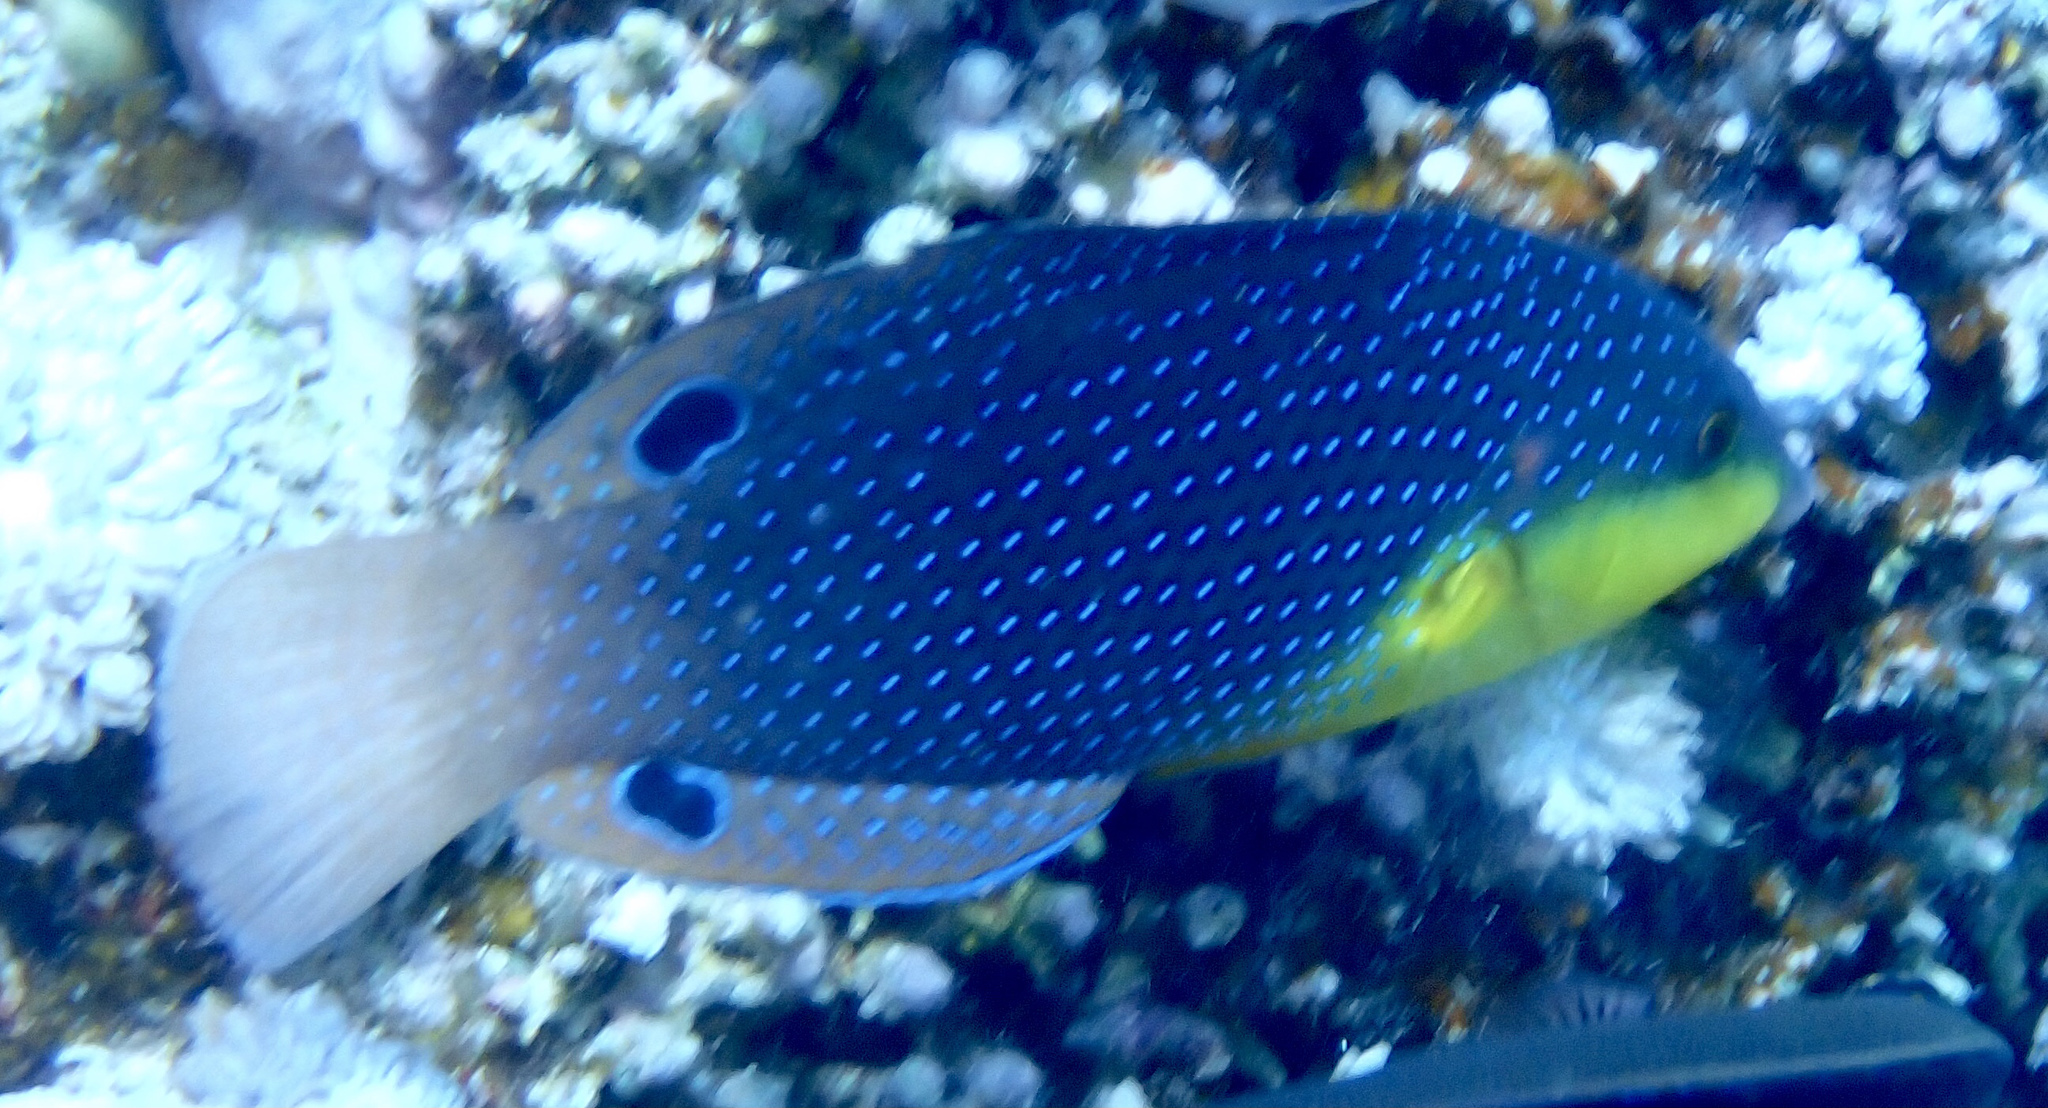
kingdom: Animalia
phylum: Chordata
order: Perciformes
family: Labridae
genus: Anampses
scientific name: Anampses twistii
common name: Yellowbreasted wrasse
